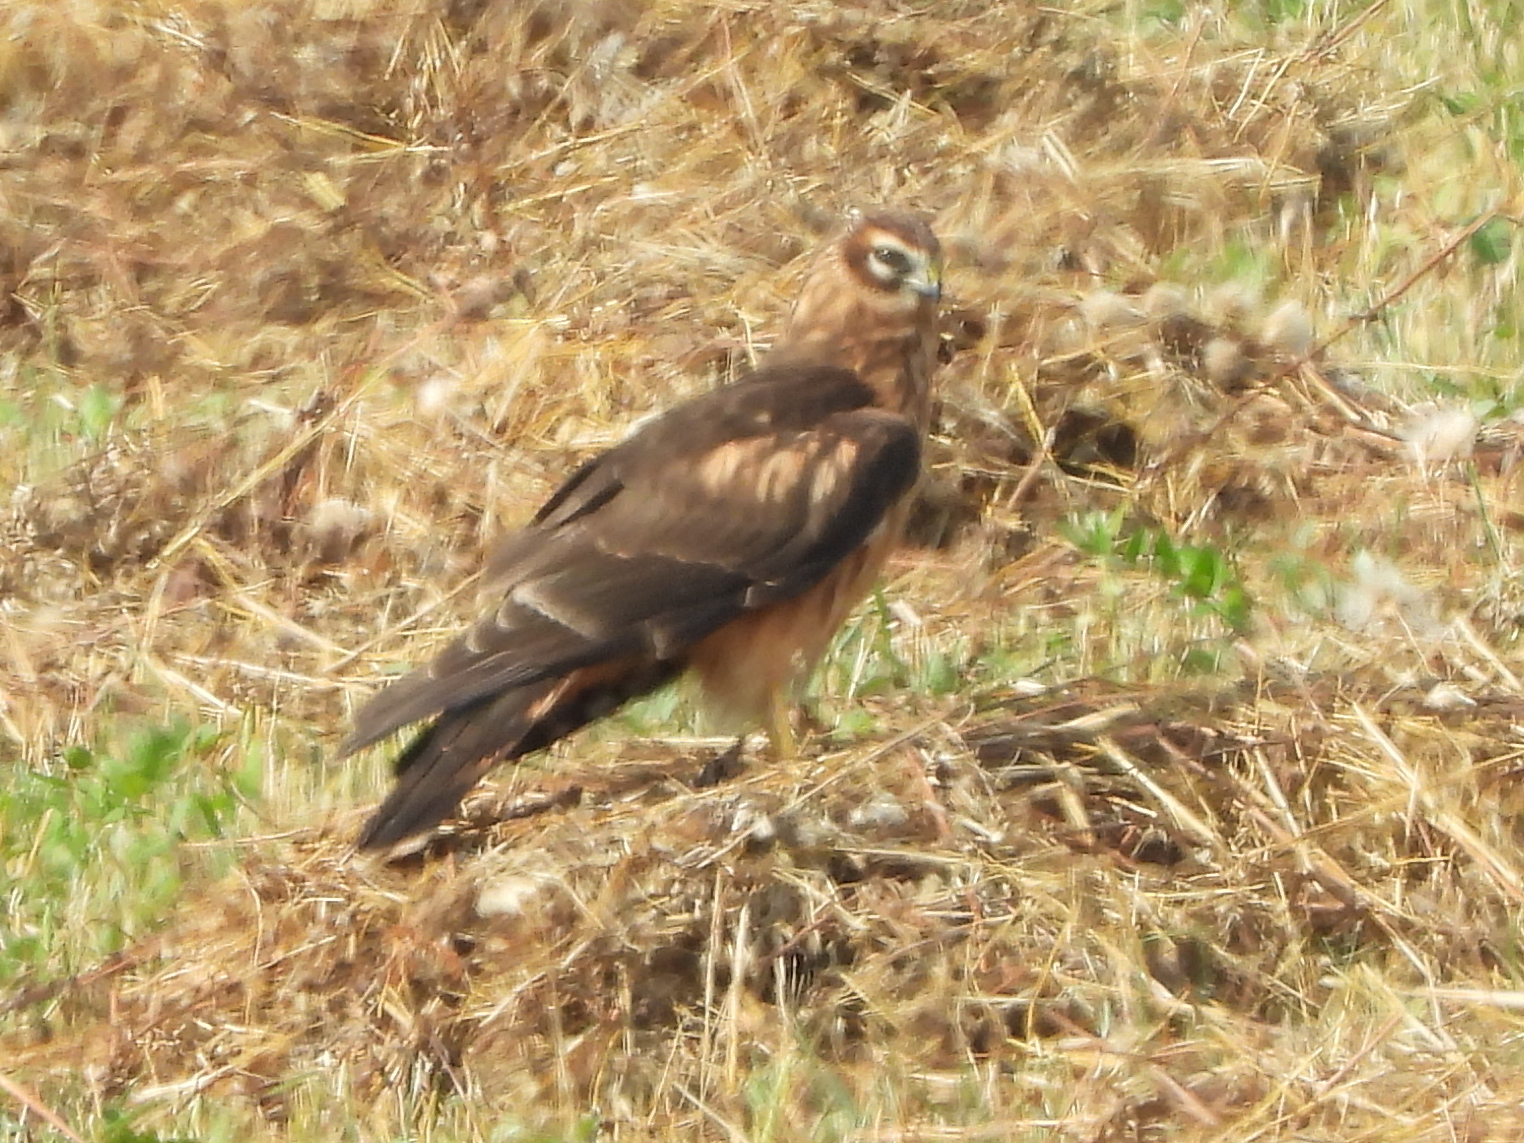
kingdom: Animalia
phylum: Chordata
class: Aves
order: Accipitriformes
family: Accipitridae
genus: Circus
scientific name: Circus cyaneus
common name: Hen harrier
